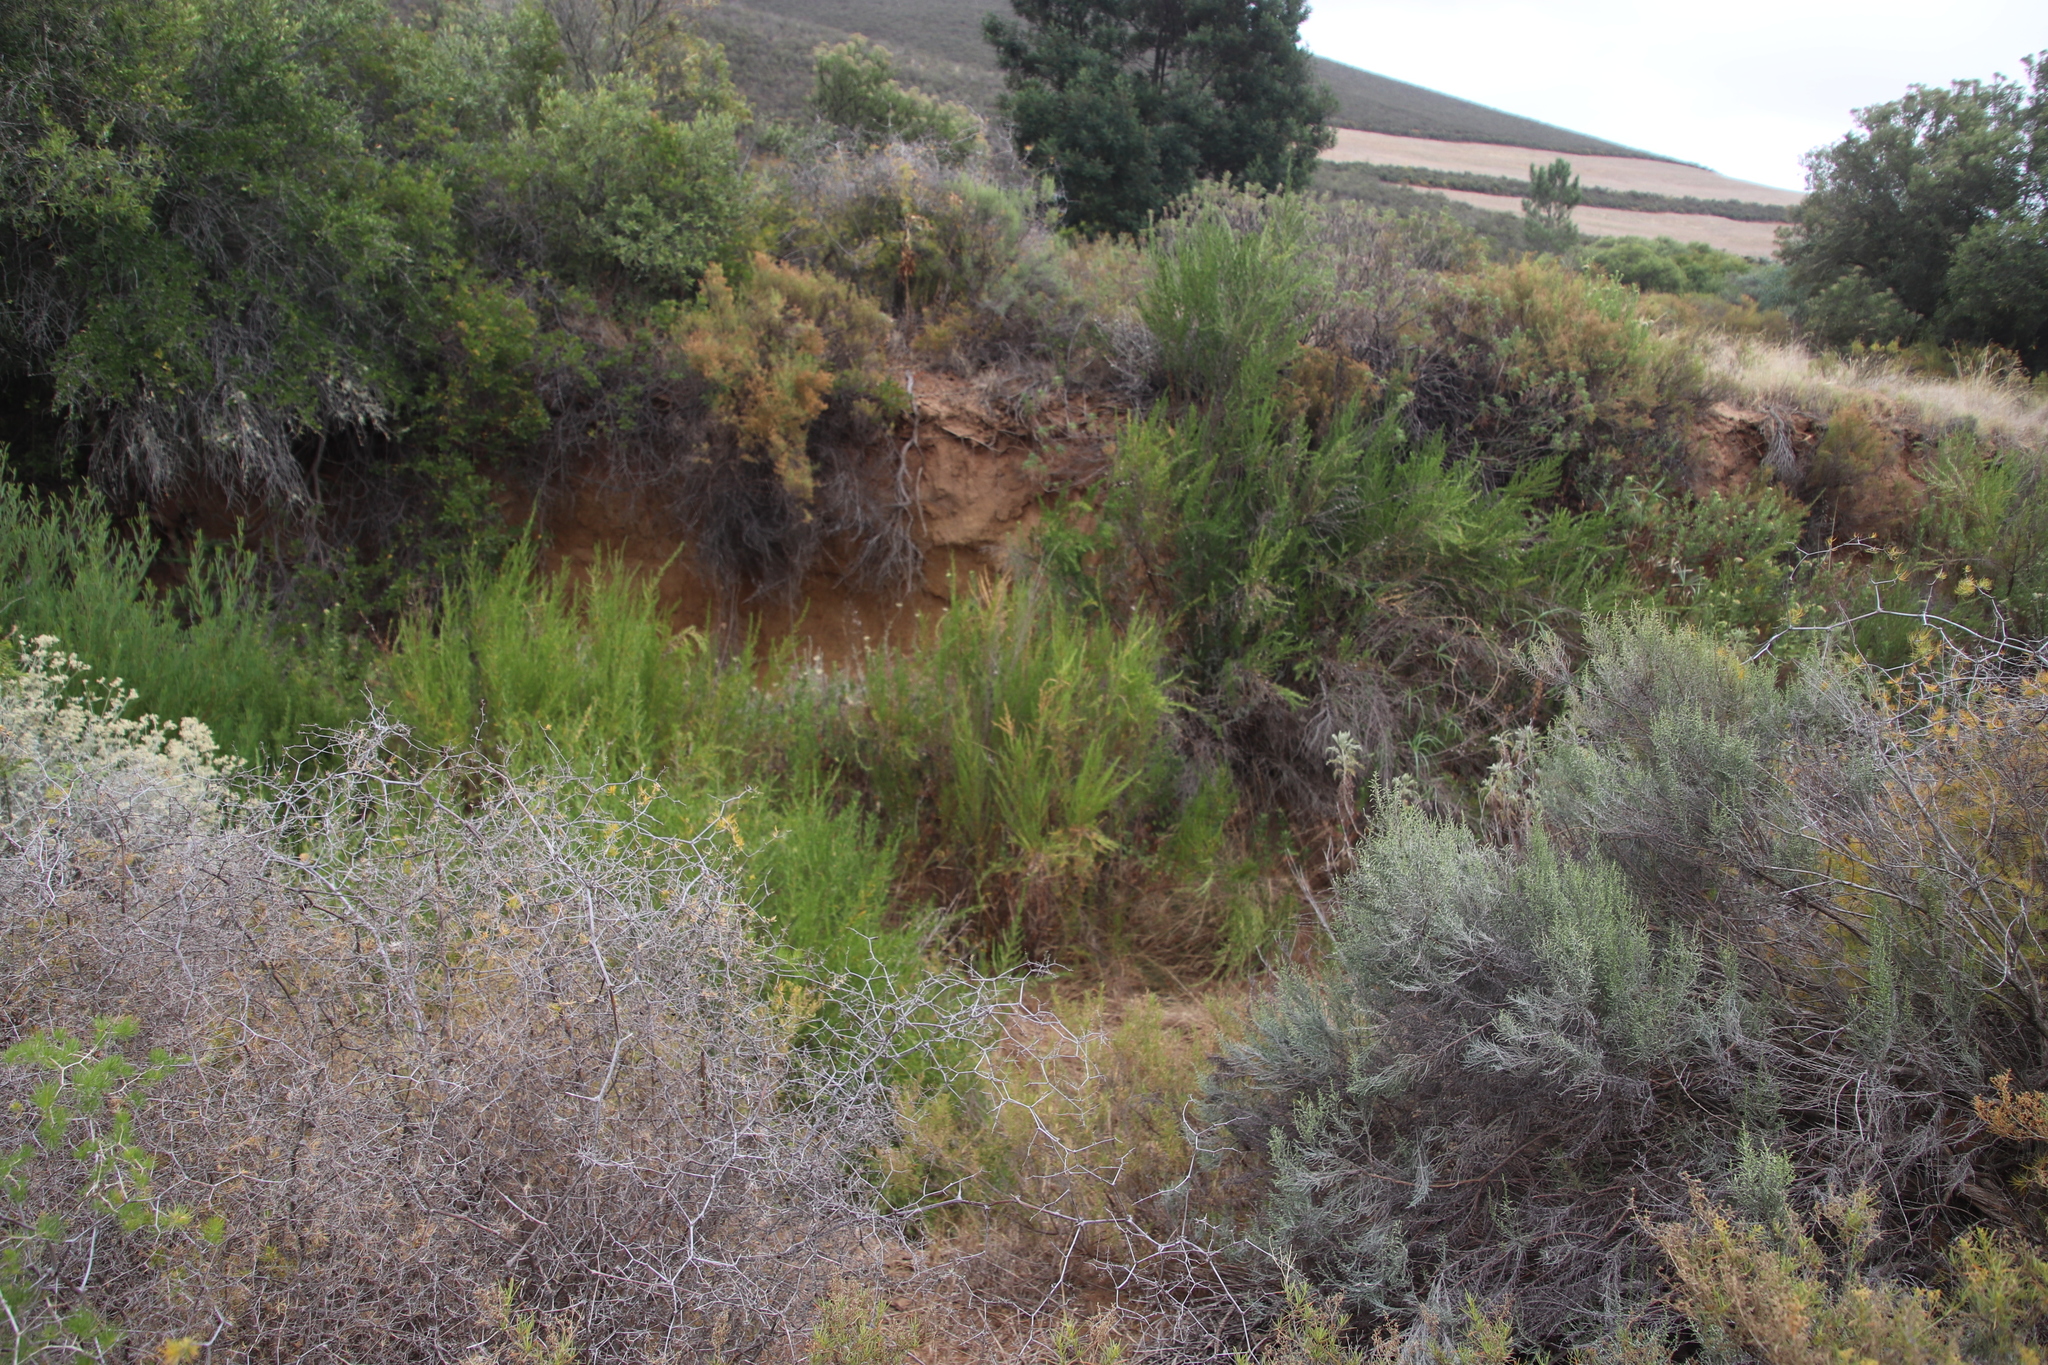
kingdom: Plantae
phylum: Tracheophyta
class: Magnoliopsida
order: Rosales
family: Rosaceae
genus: Cliffortia
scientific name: Cliffortia strobilifera
